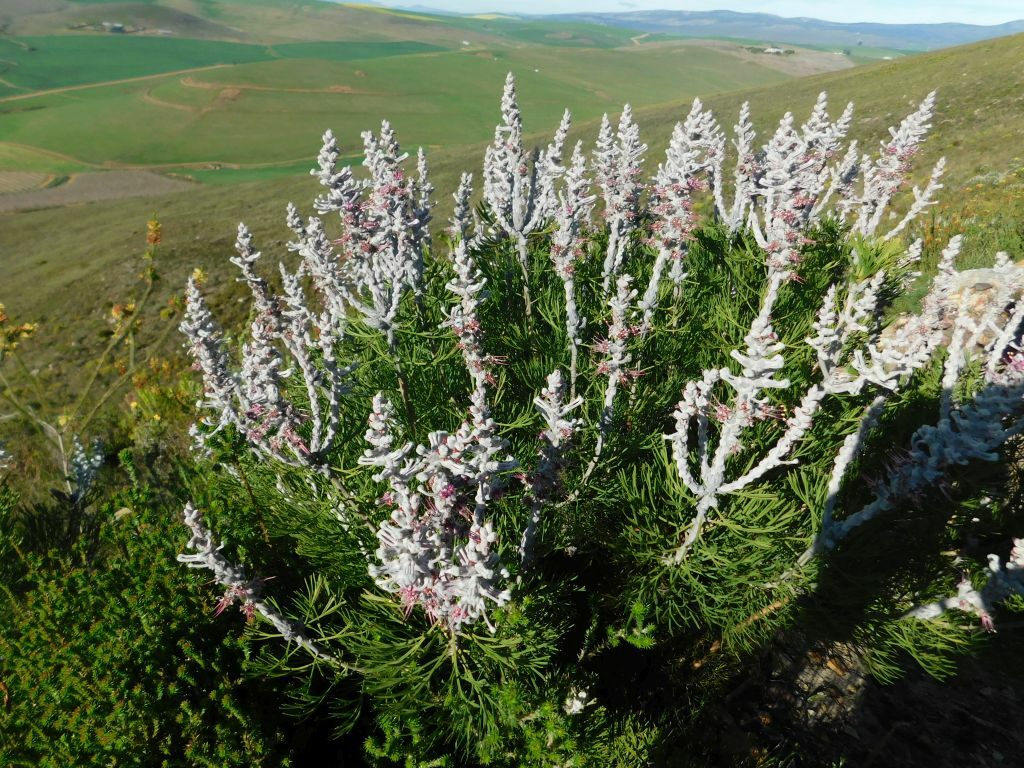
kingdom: Plantae
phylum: Tracheophyta
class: Magnoliopsida
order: Proteales
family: Proteaceae
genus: Paranomus
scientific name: Paranomus dispersus
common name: Long-head sceptre
